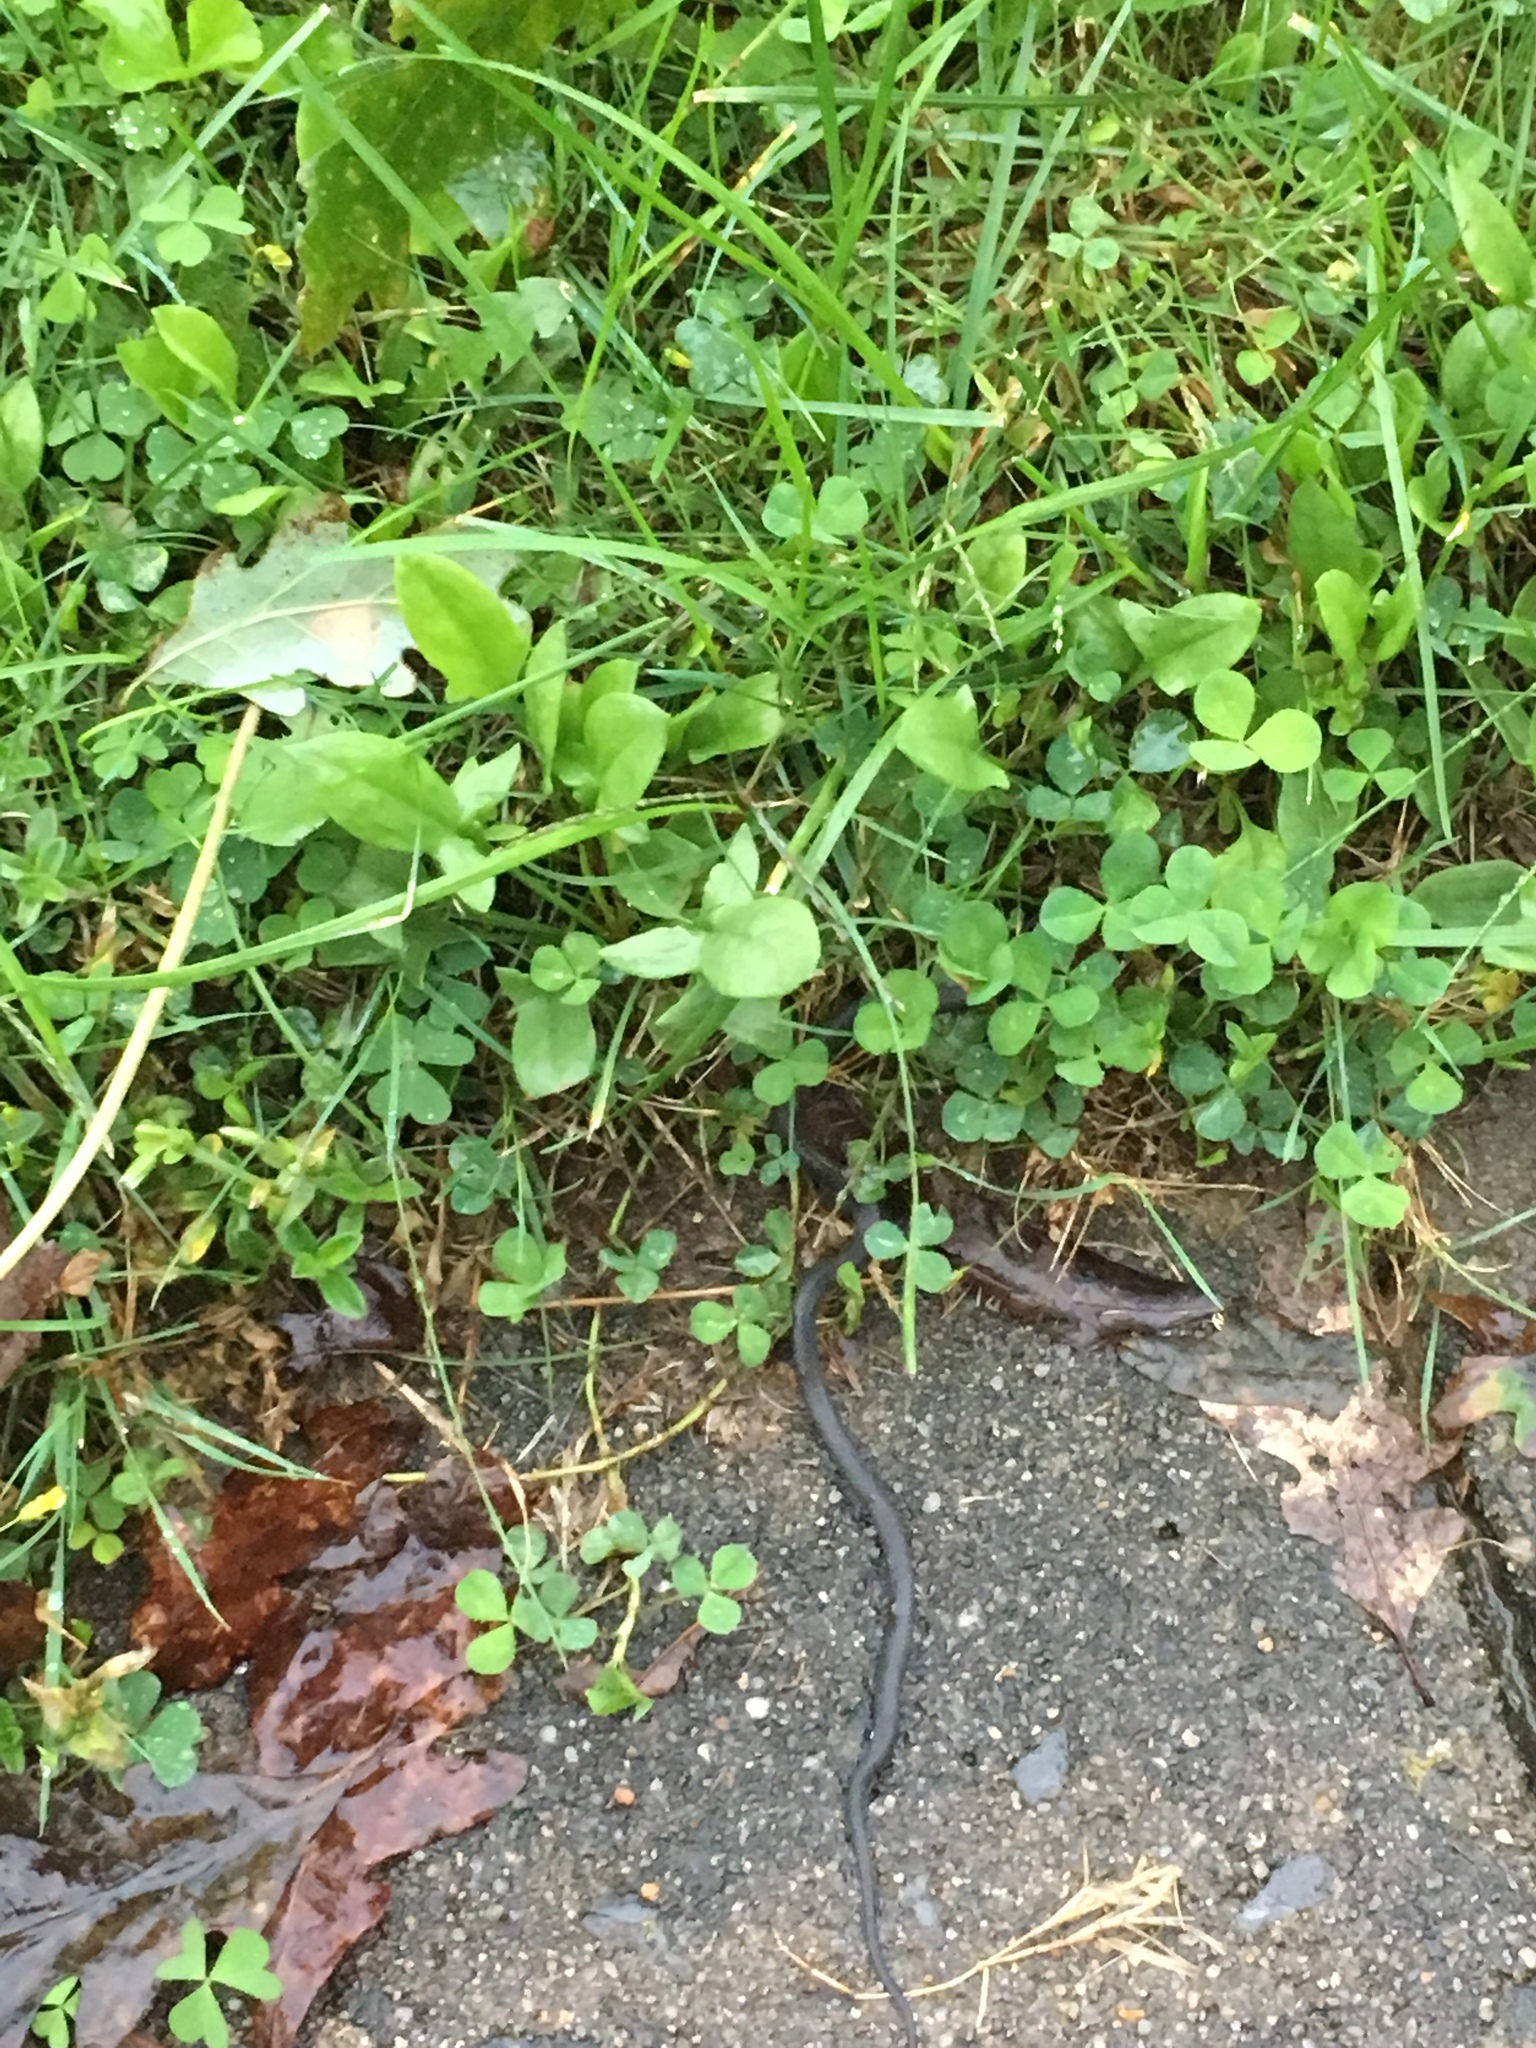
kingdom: Animalia
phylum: Chordata
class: Squamata
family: Colubridae
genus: Diadophis
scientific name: Diadophis punctatus
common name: Ringneck snake
